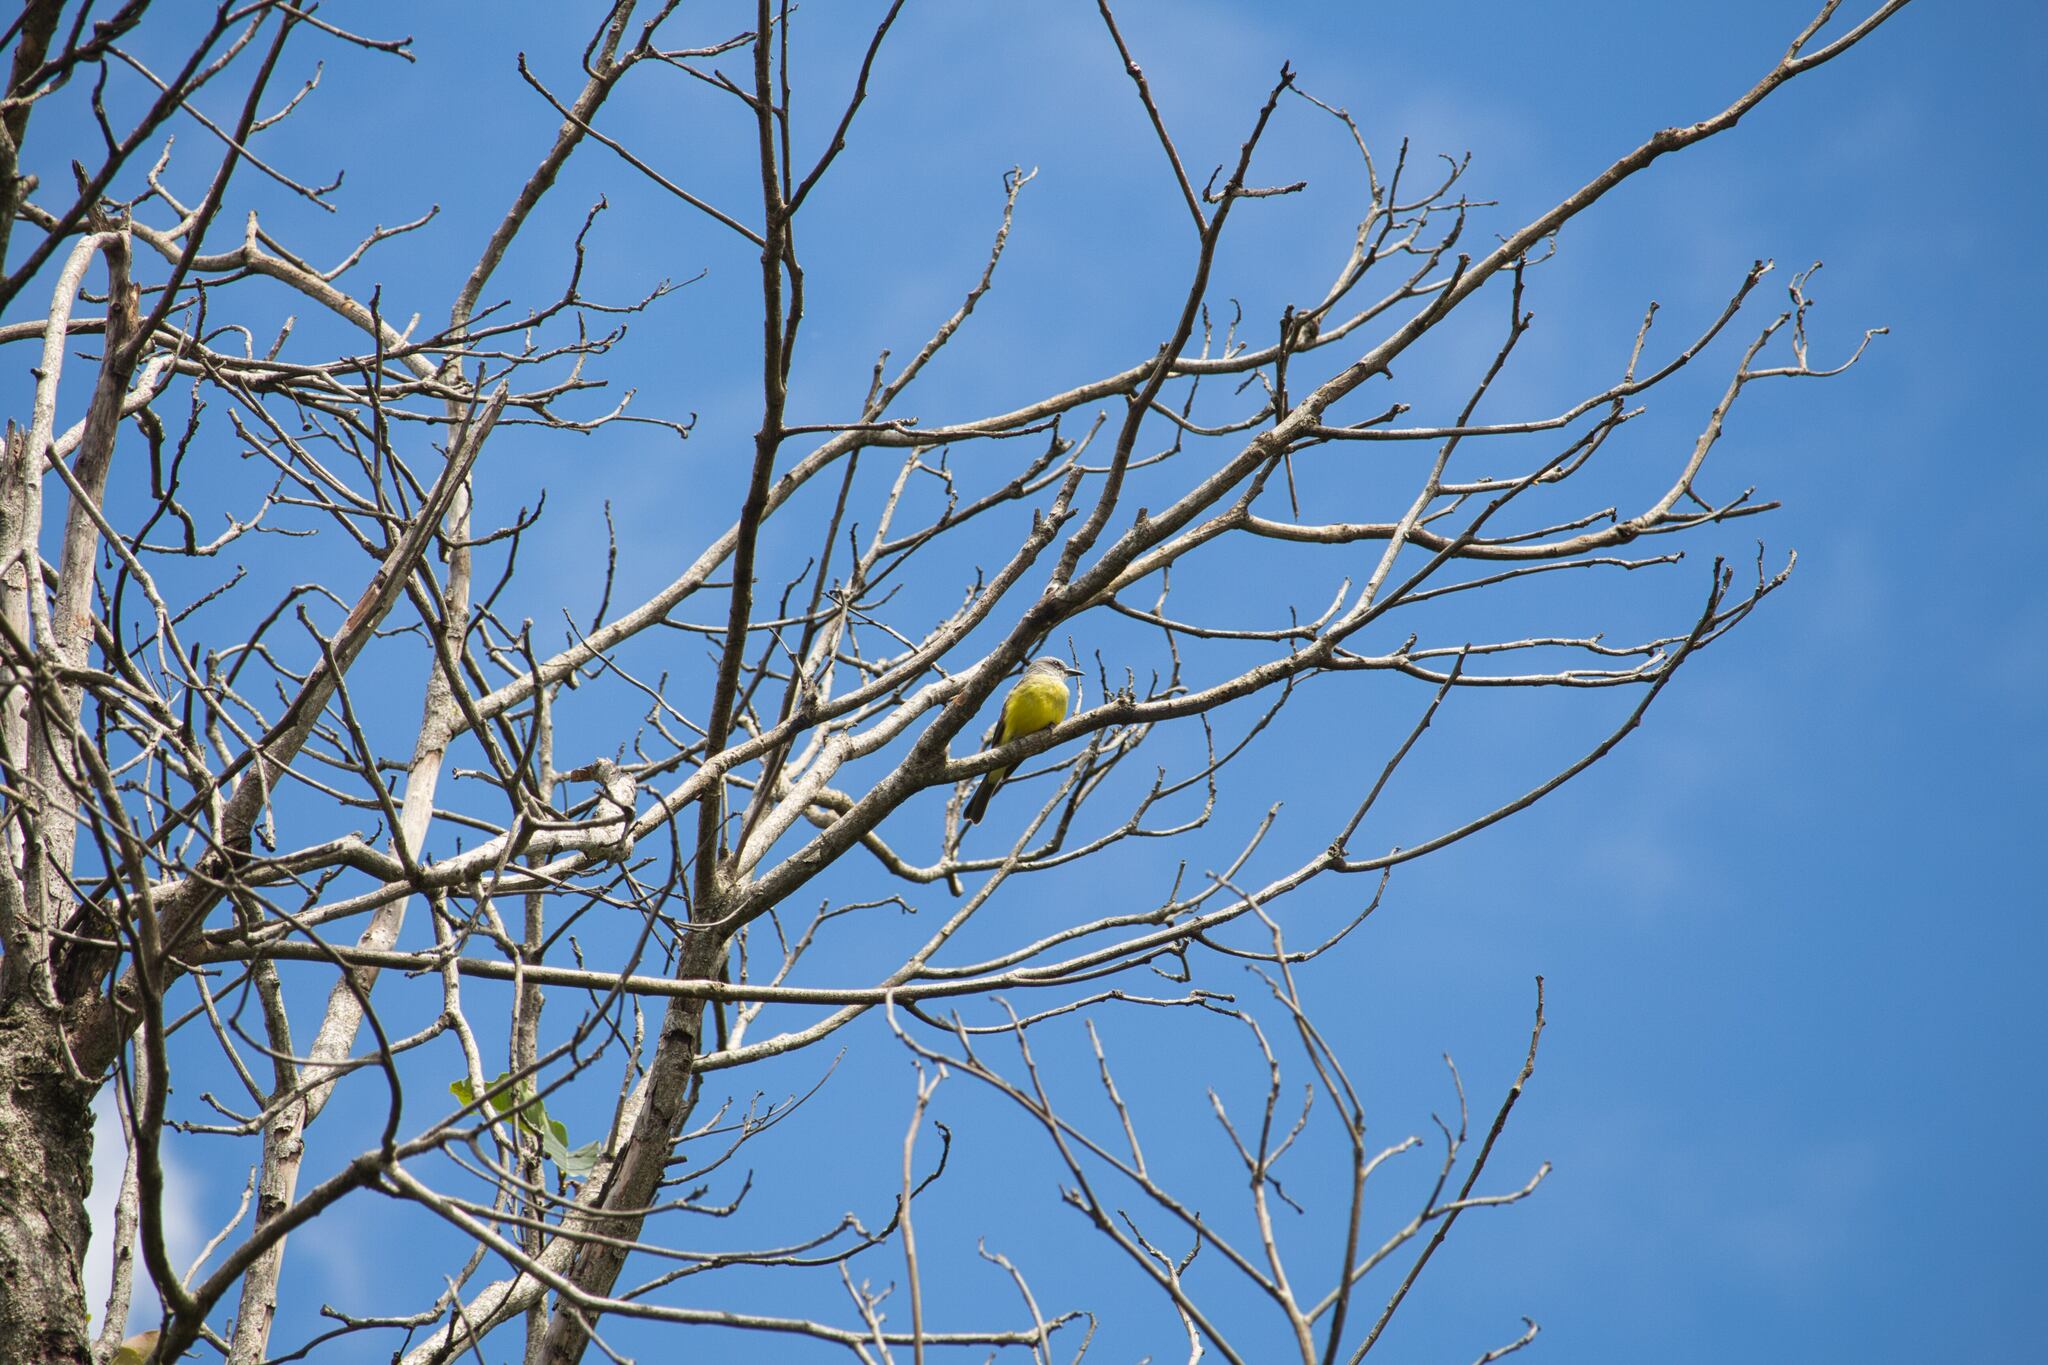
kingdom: Animalia
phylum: Chordata
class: Aves
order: Passeriformes
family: Tyrannidae
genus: Tyrannus
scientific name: Tyrannus melancholicus
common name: Tropical kingbird
